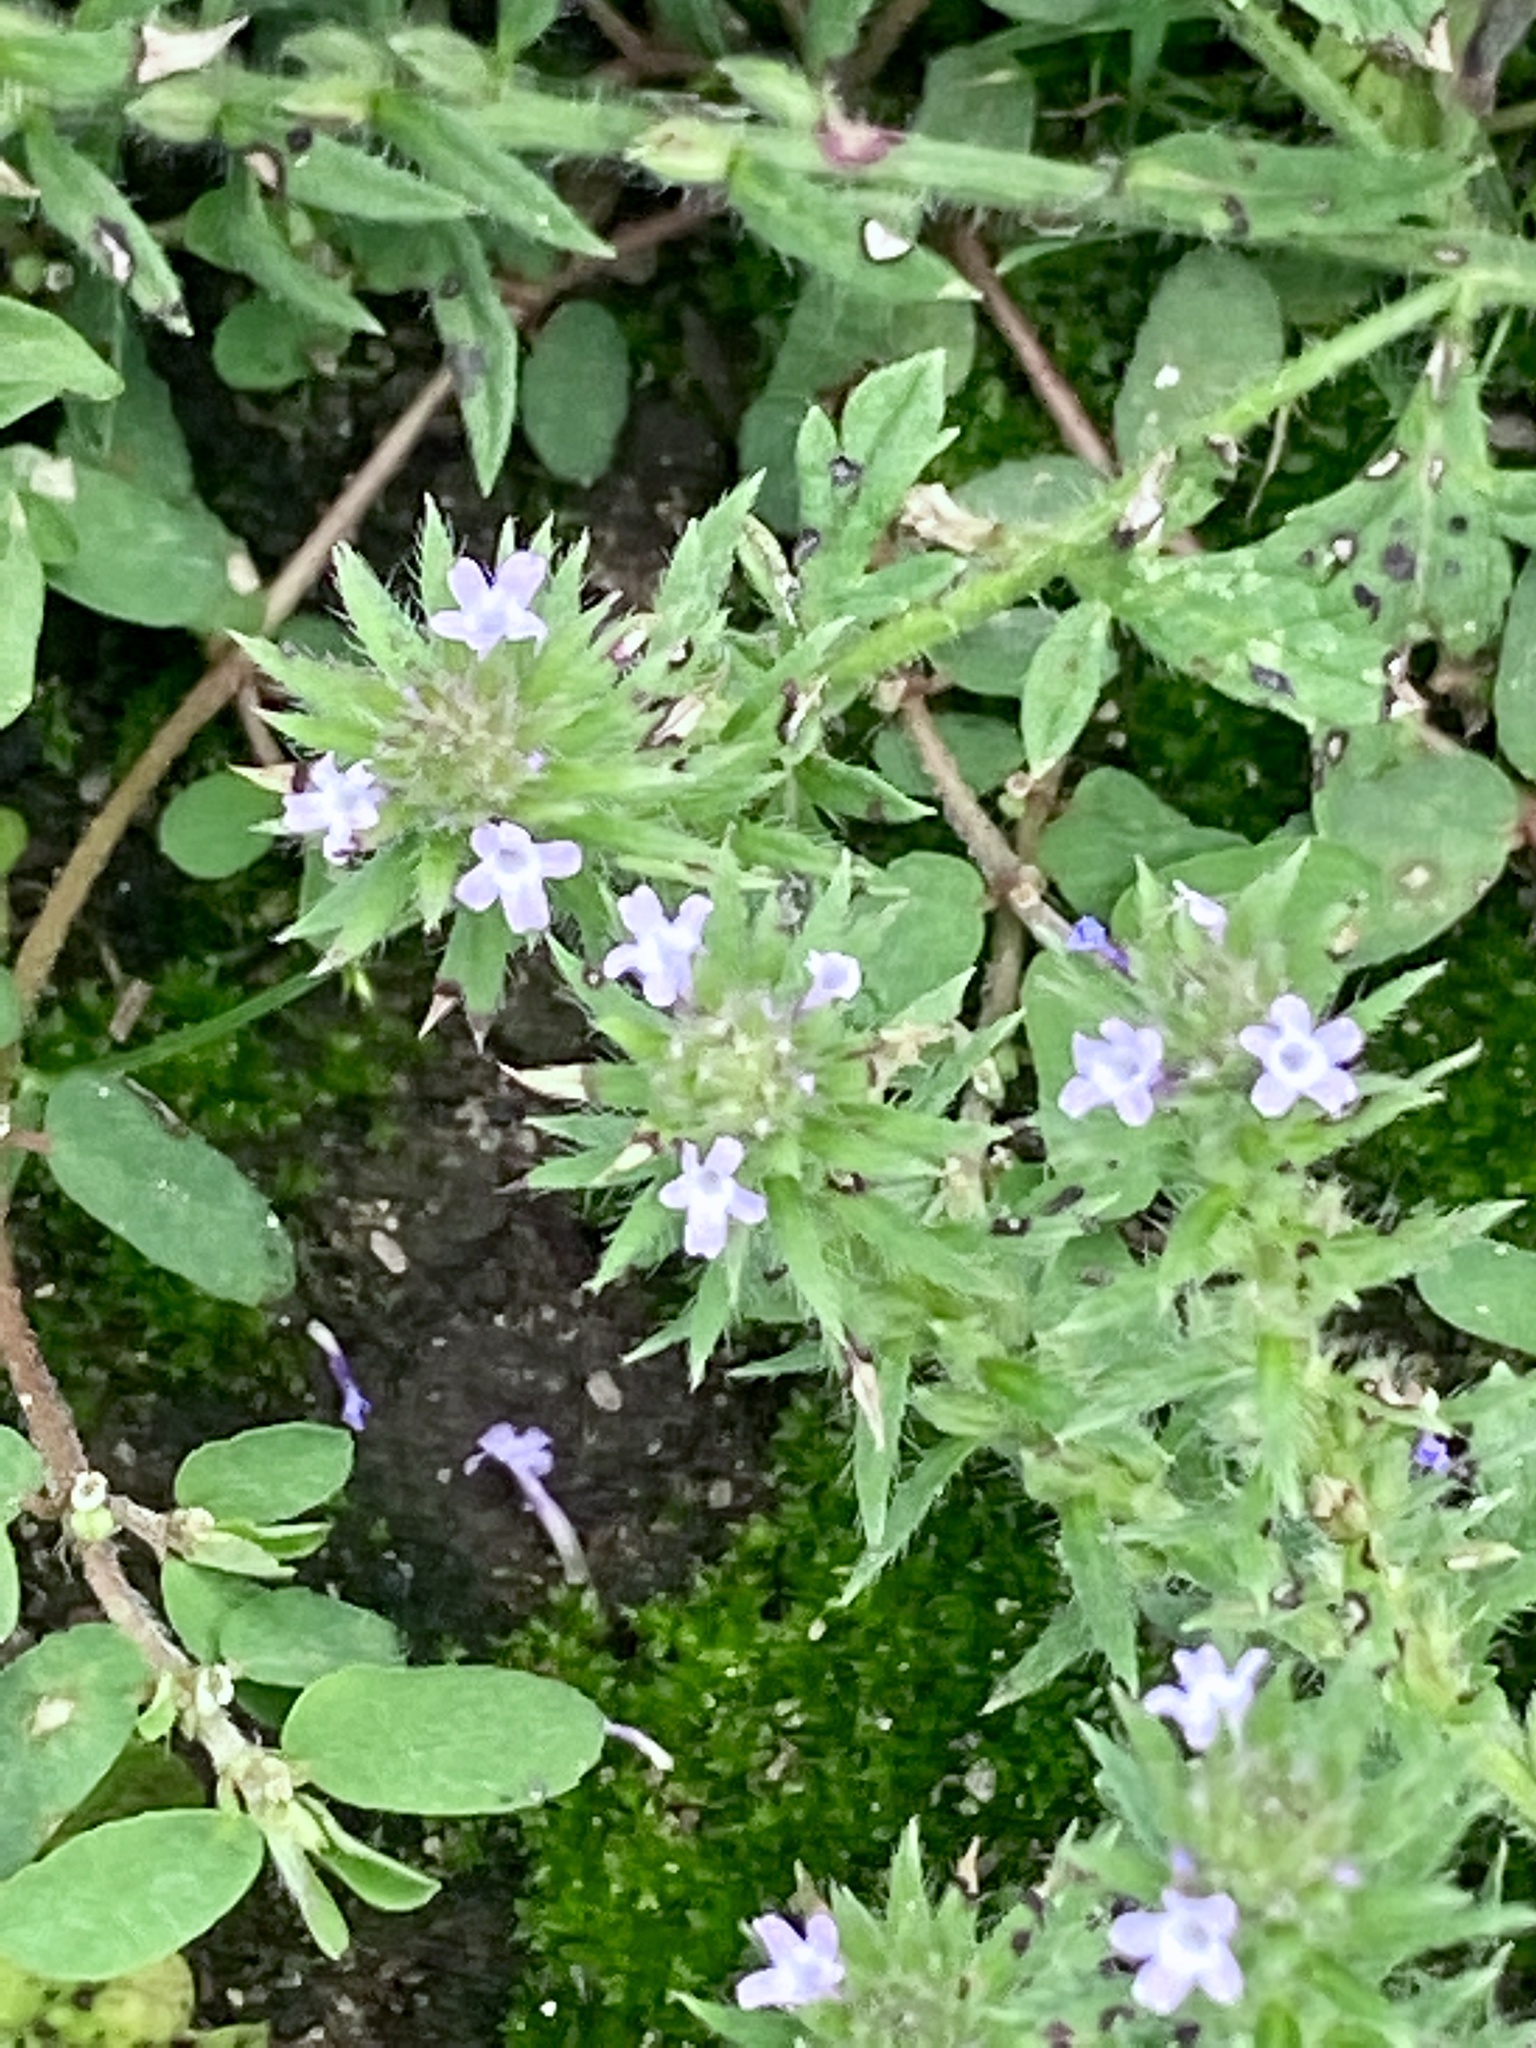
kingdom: Plantae
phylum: Tracheophyta
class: Magnoliopsida
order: Lamiales
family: Verbenaceae
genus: Verbena
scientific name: Verbena bracteata
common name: Bracted vervain
